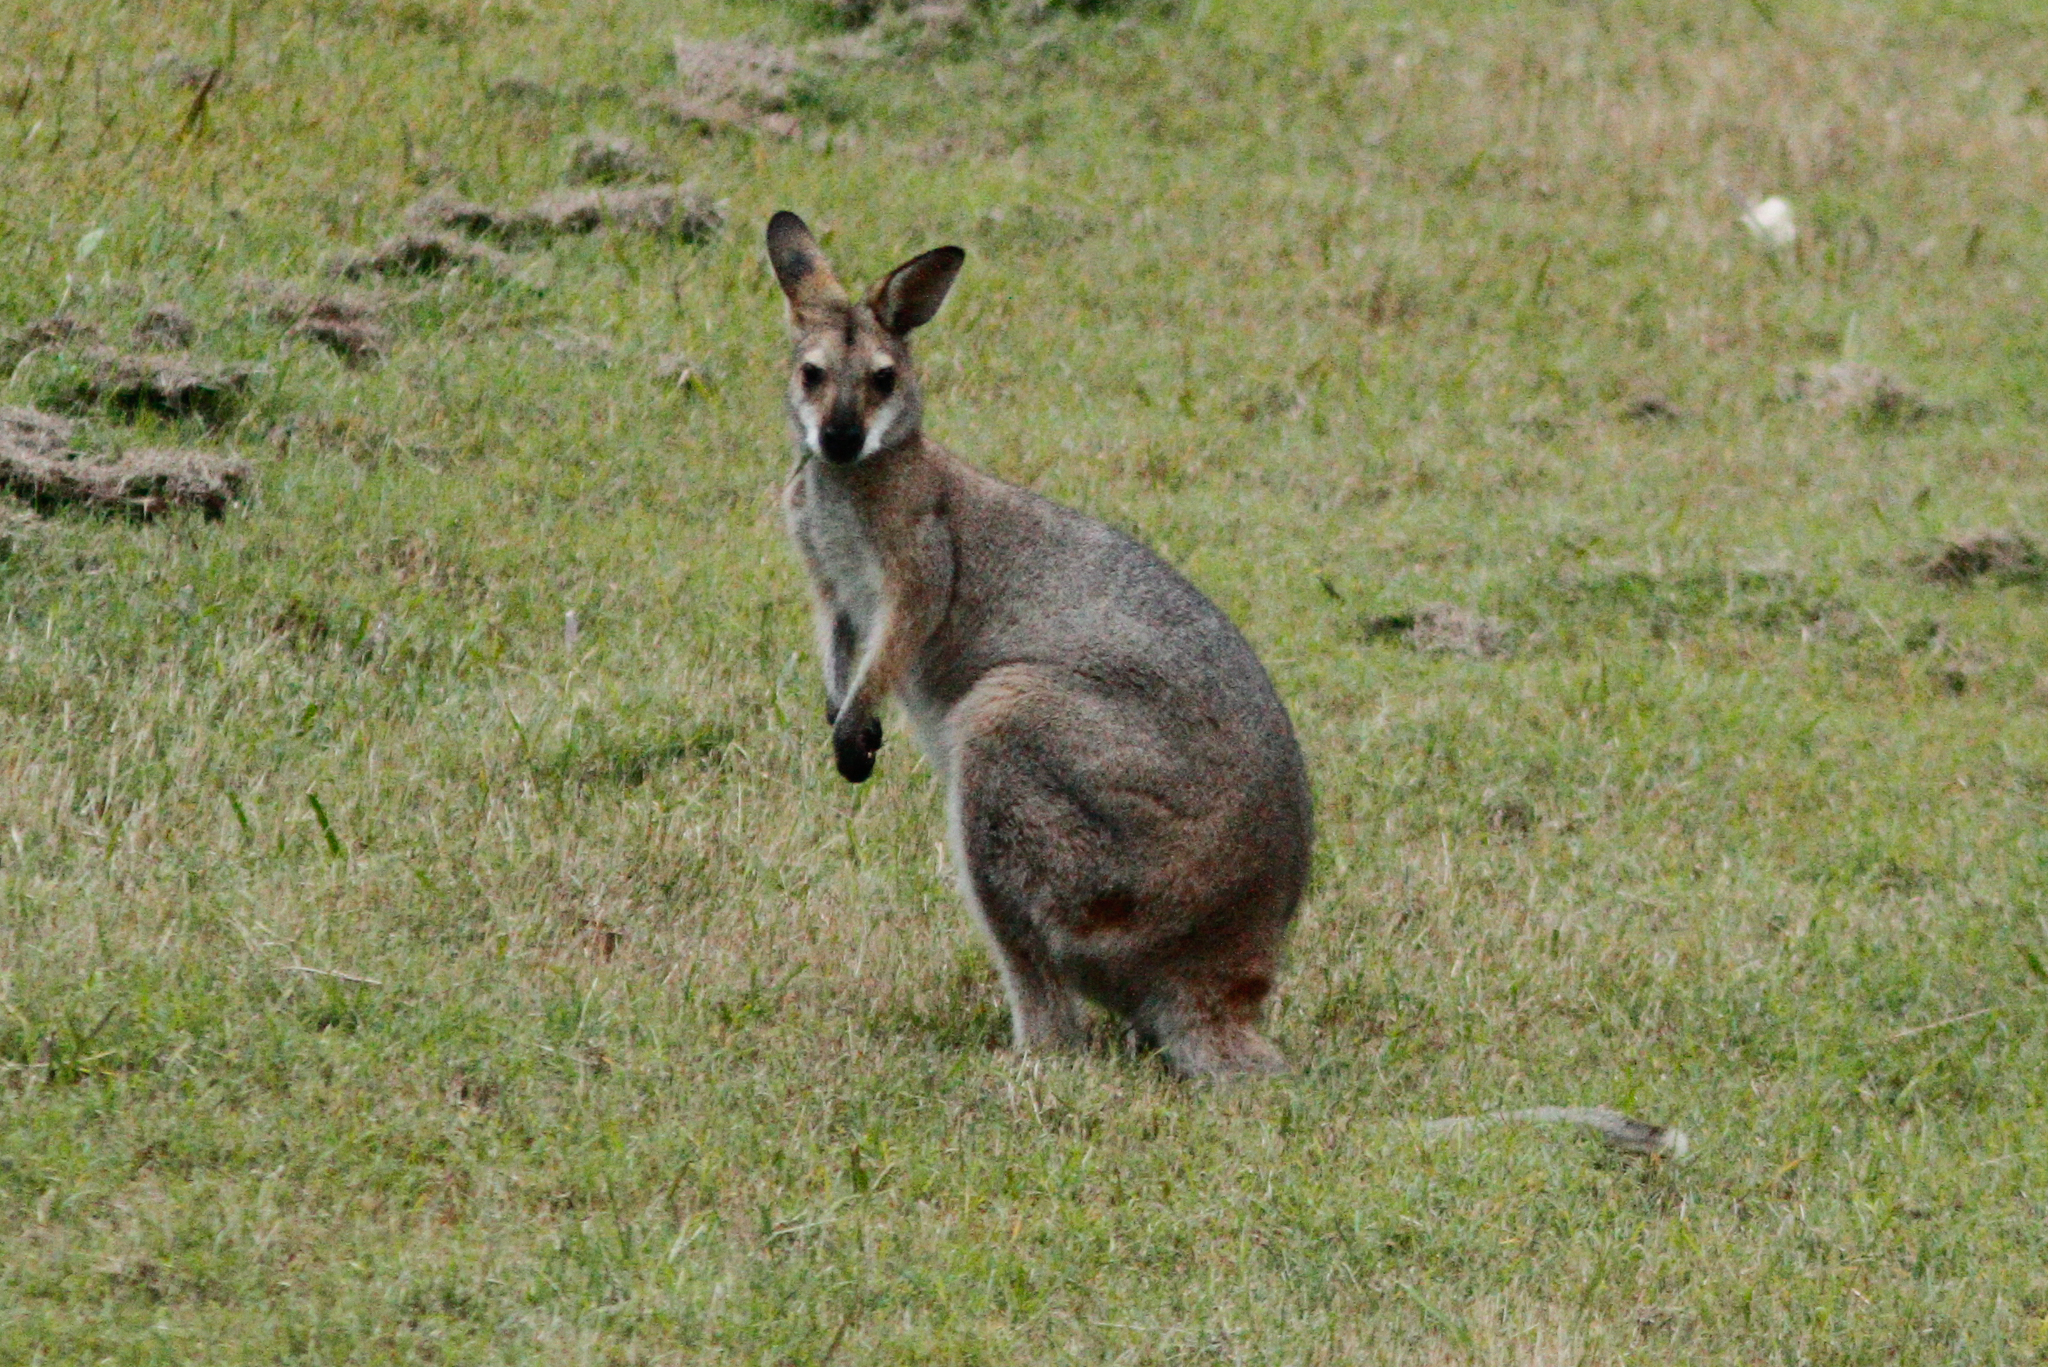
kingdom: Animalia
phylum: Chordata
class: Mammalia
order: Diprotodontia
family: Macropodidae
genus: Notamacropus
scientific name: Notamacropus rufogriseus
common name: Red-necked wallaby
